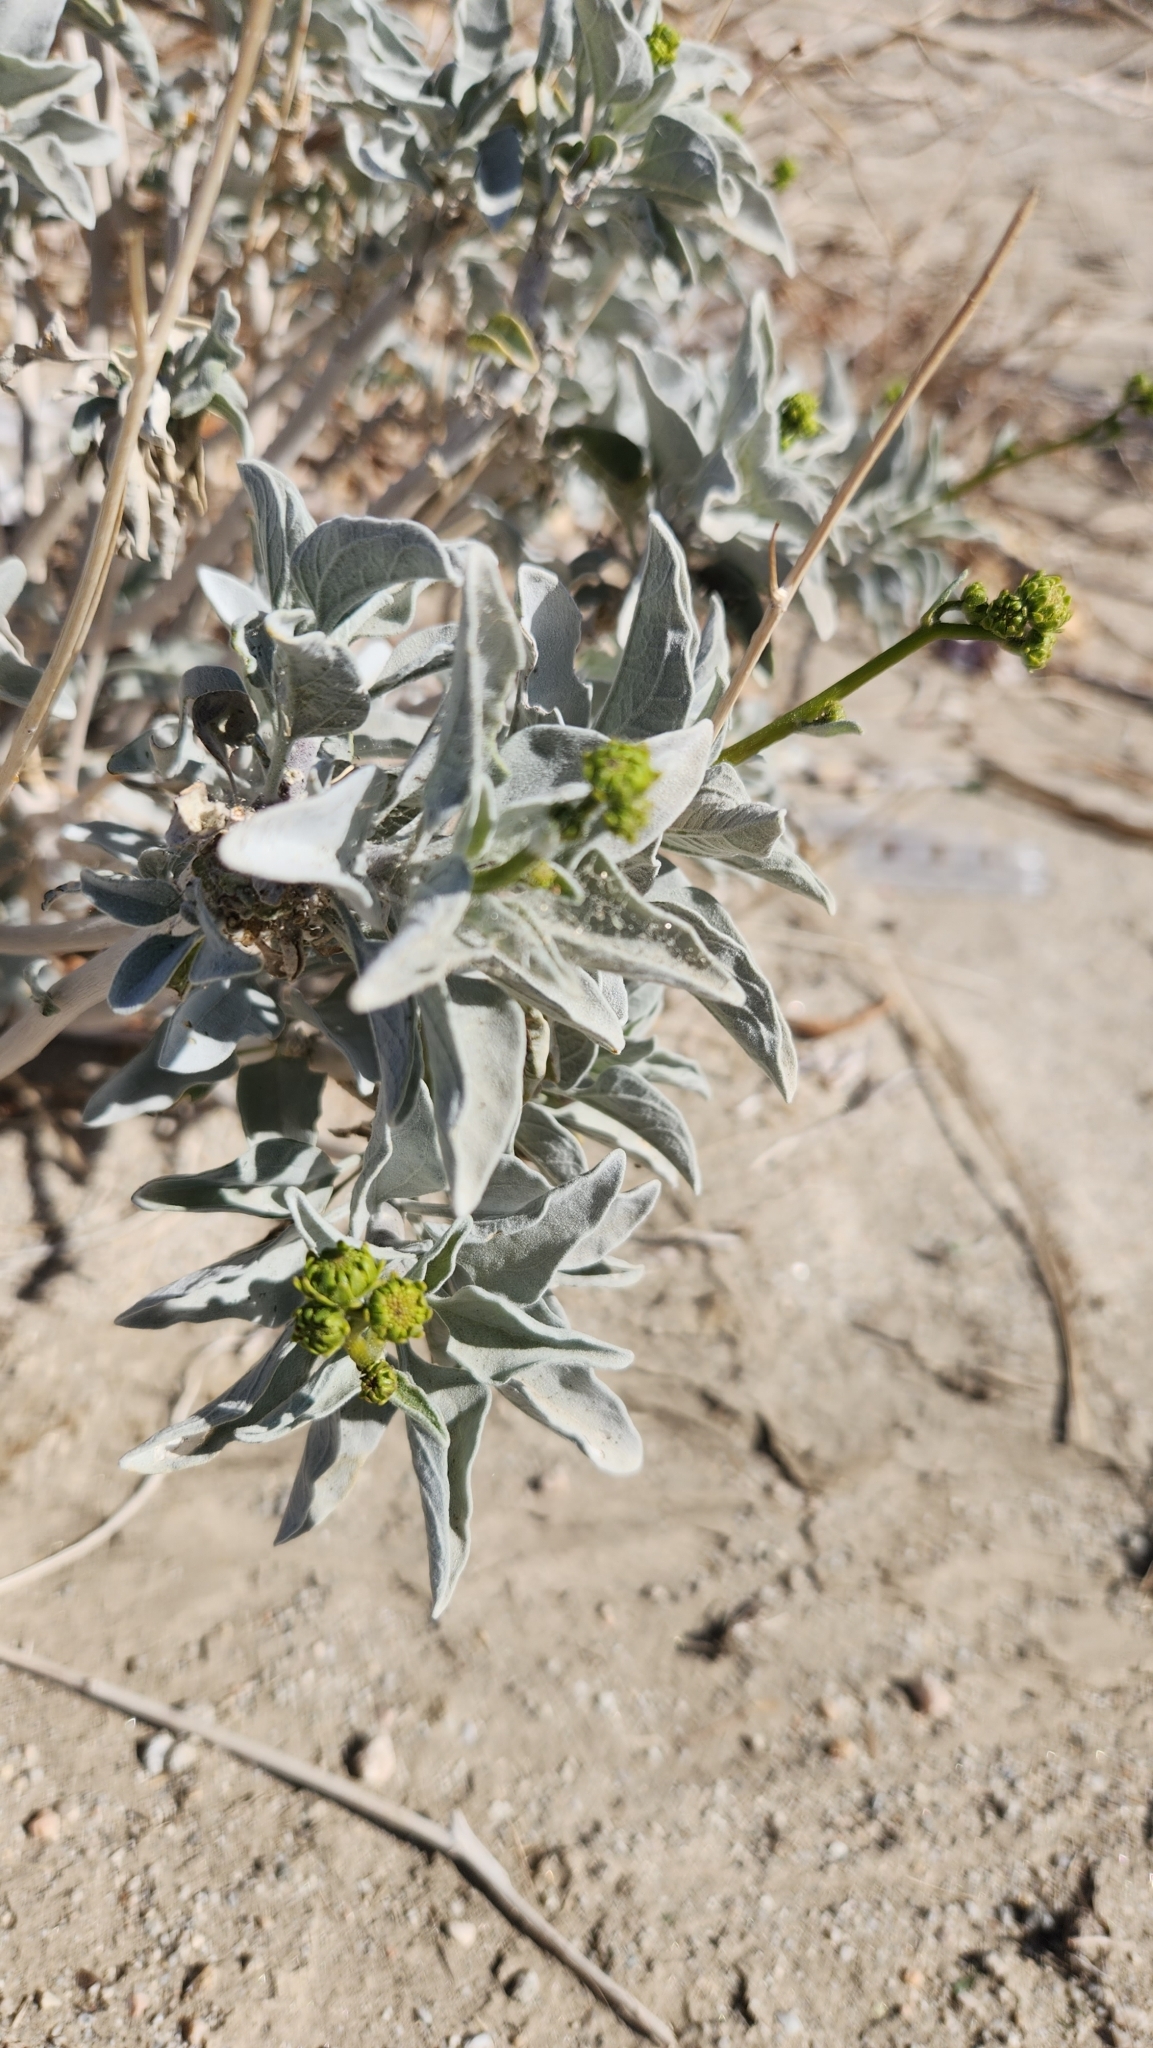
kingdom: Plantae
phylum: Tracheophyta
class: Magnoliopsida
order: Asterales
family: Asteraceae
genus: Encelia
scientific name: Encelia farinosa
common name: Brittlebush
